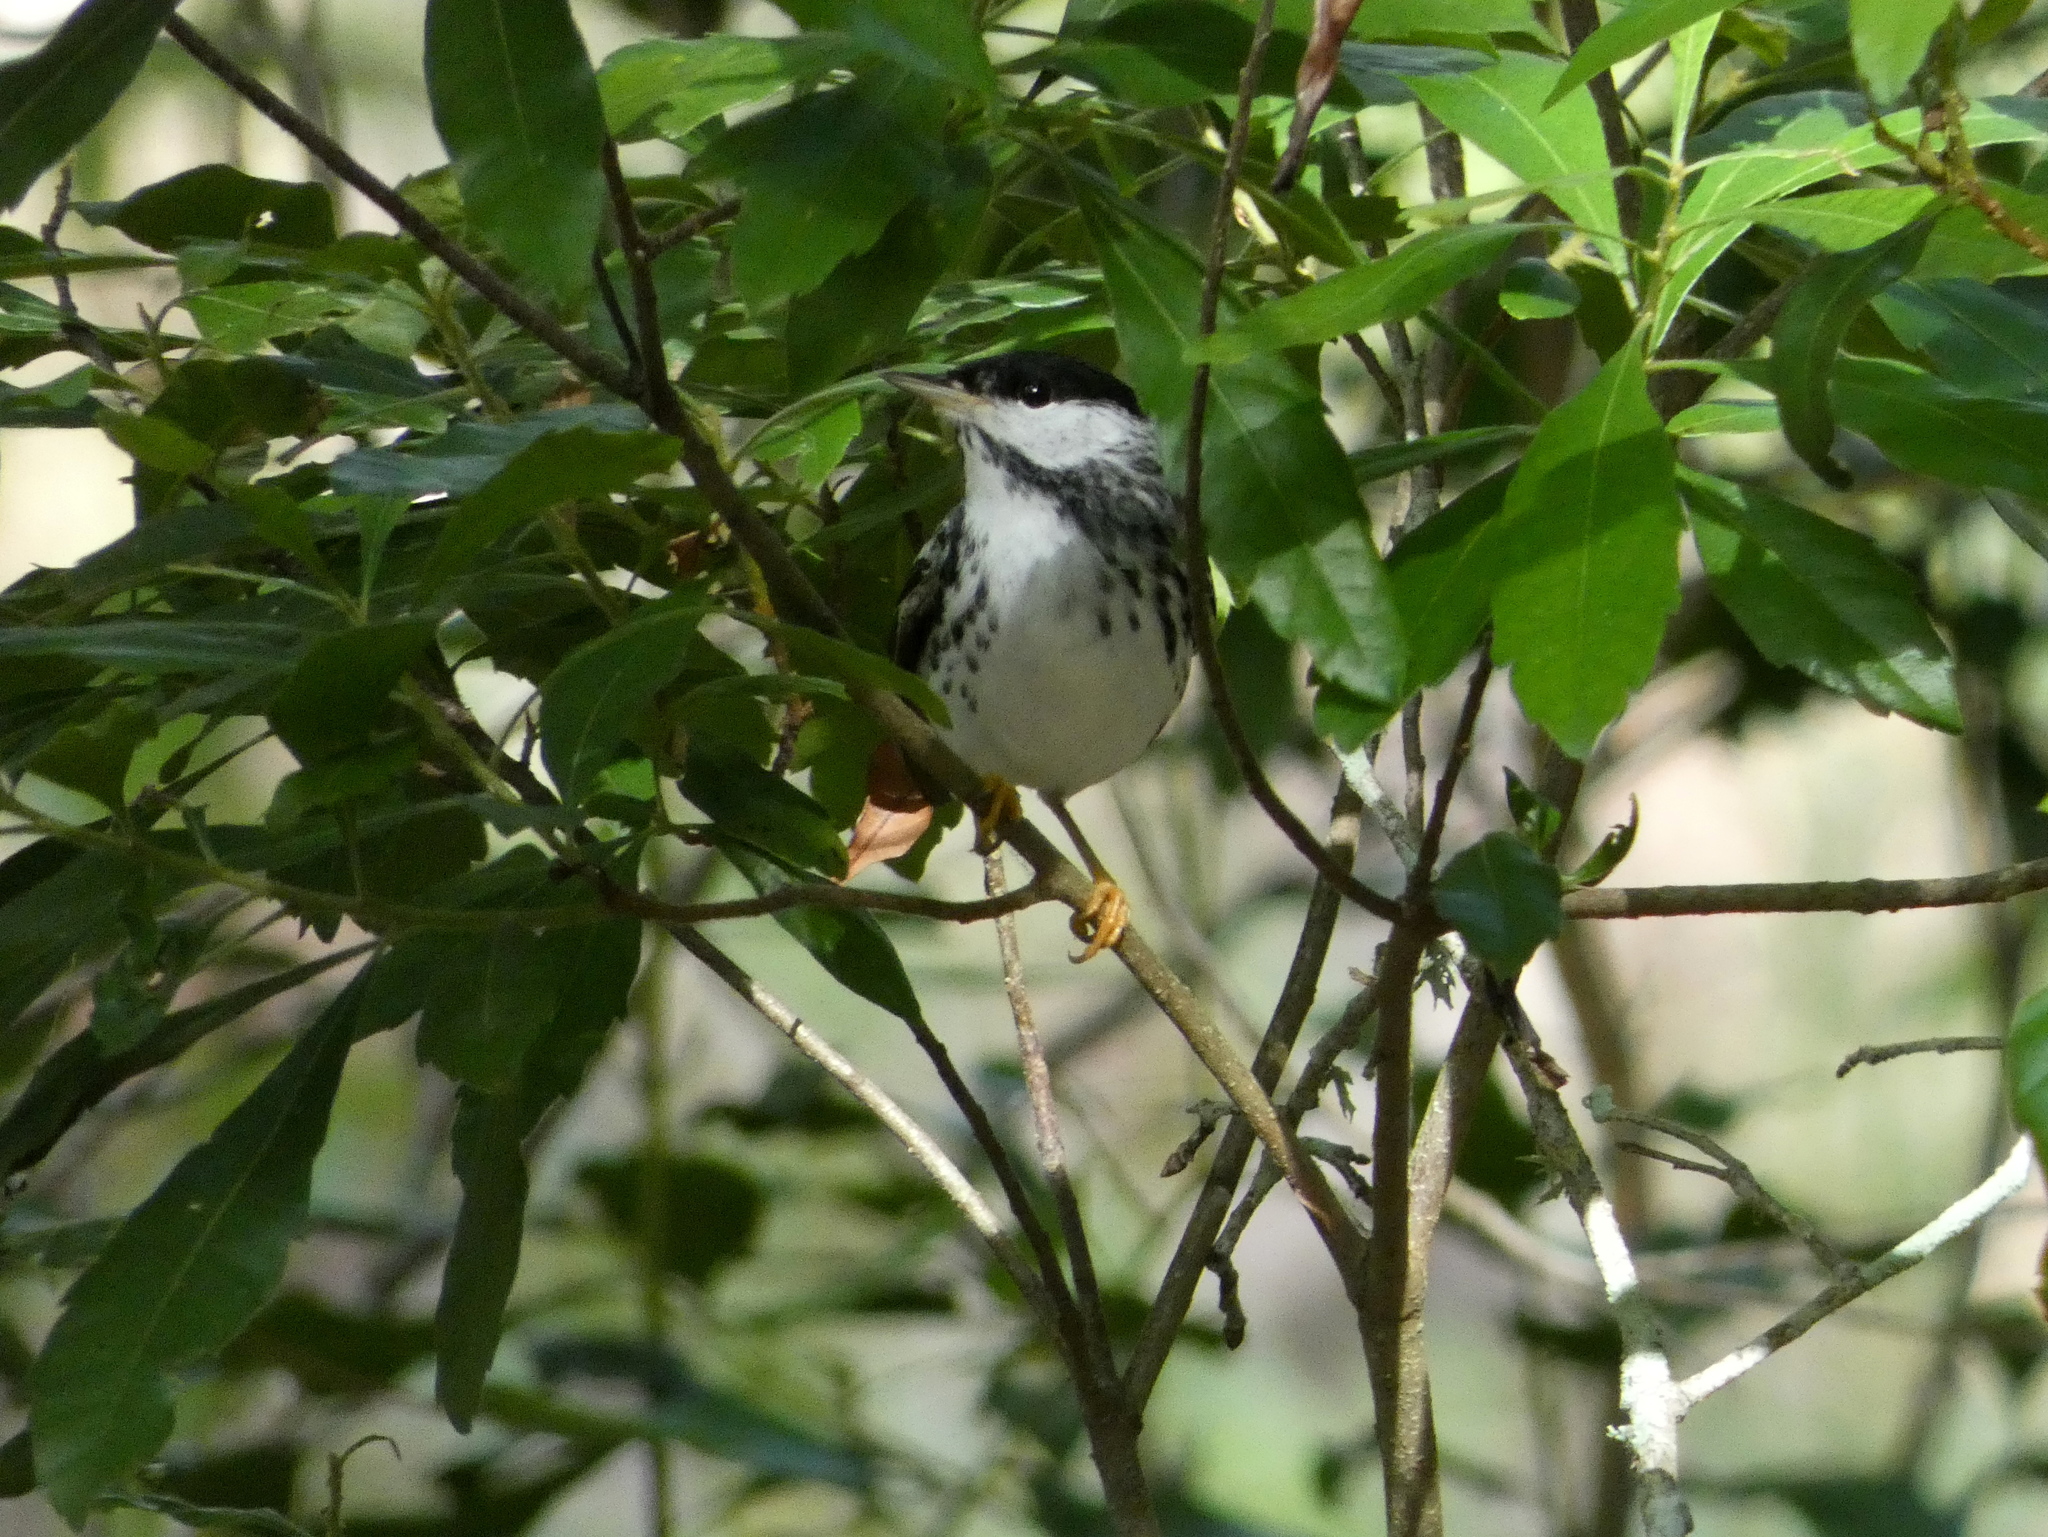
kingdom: Animalia
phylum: Chordata
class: Aves
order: Passeriformes
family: Parulidae
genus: Setophaga
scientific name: Setophaga striata
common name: Blackpoll warbler
